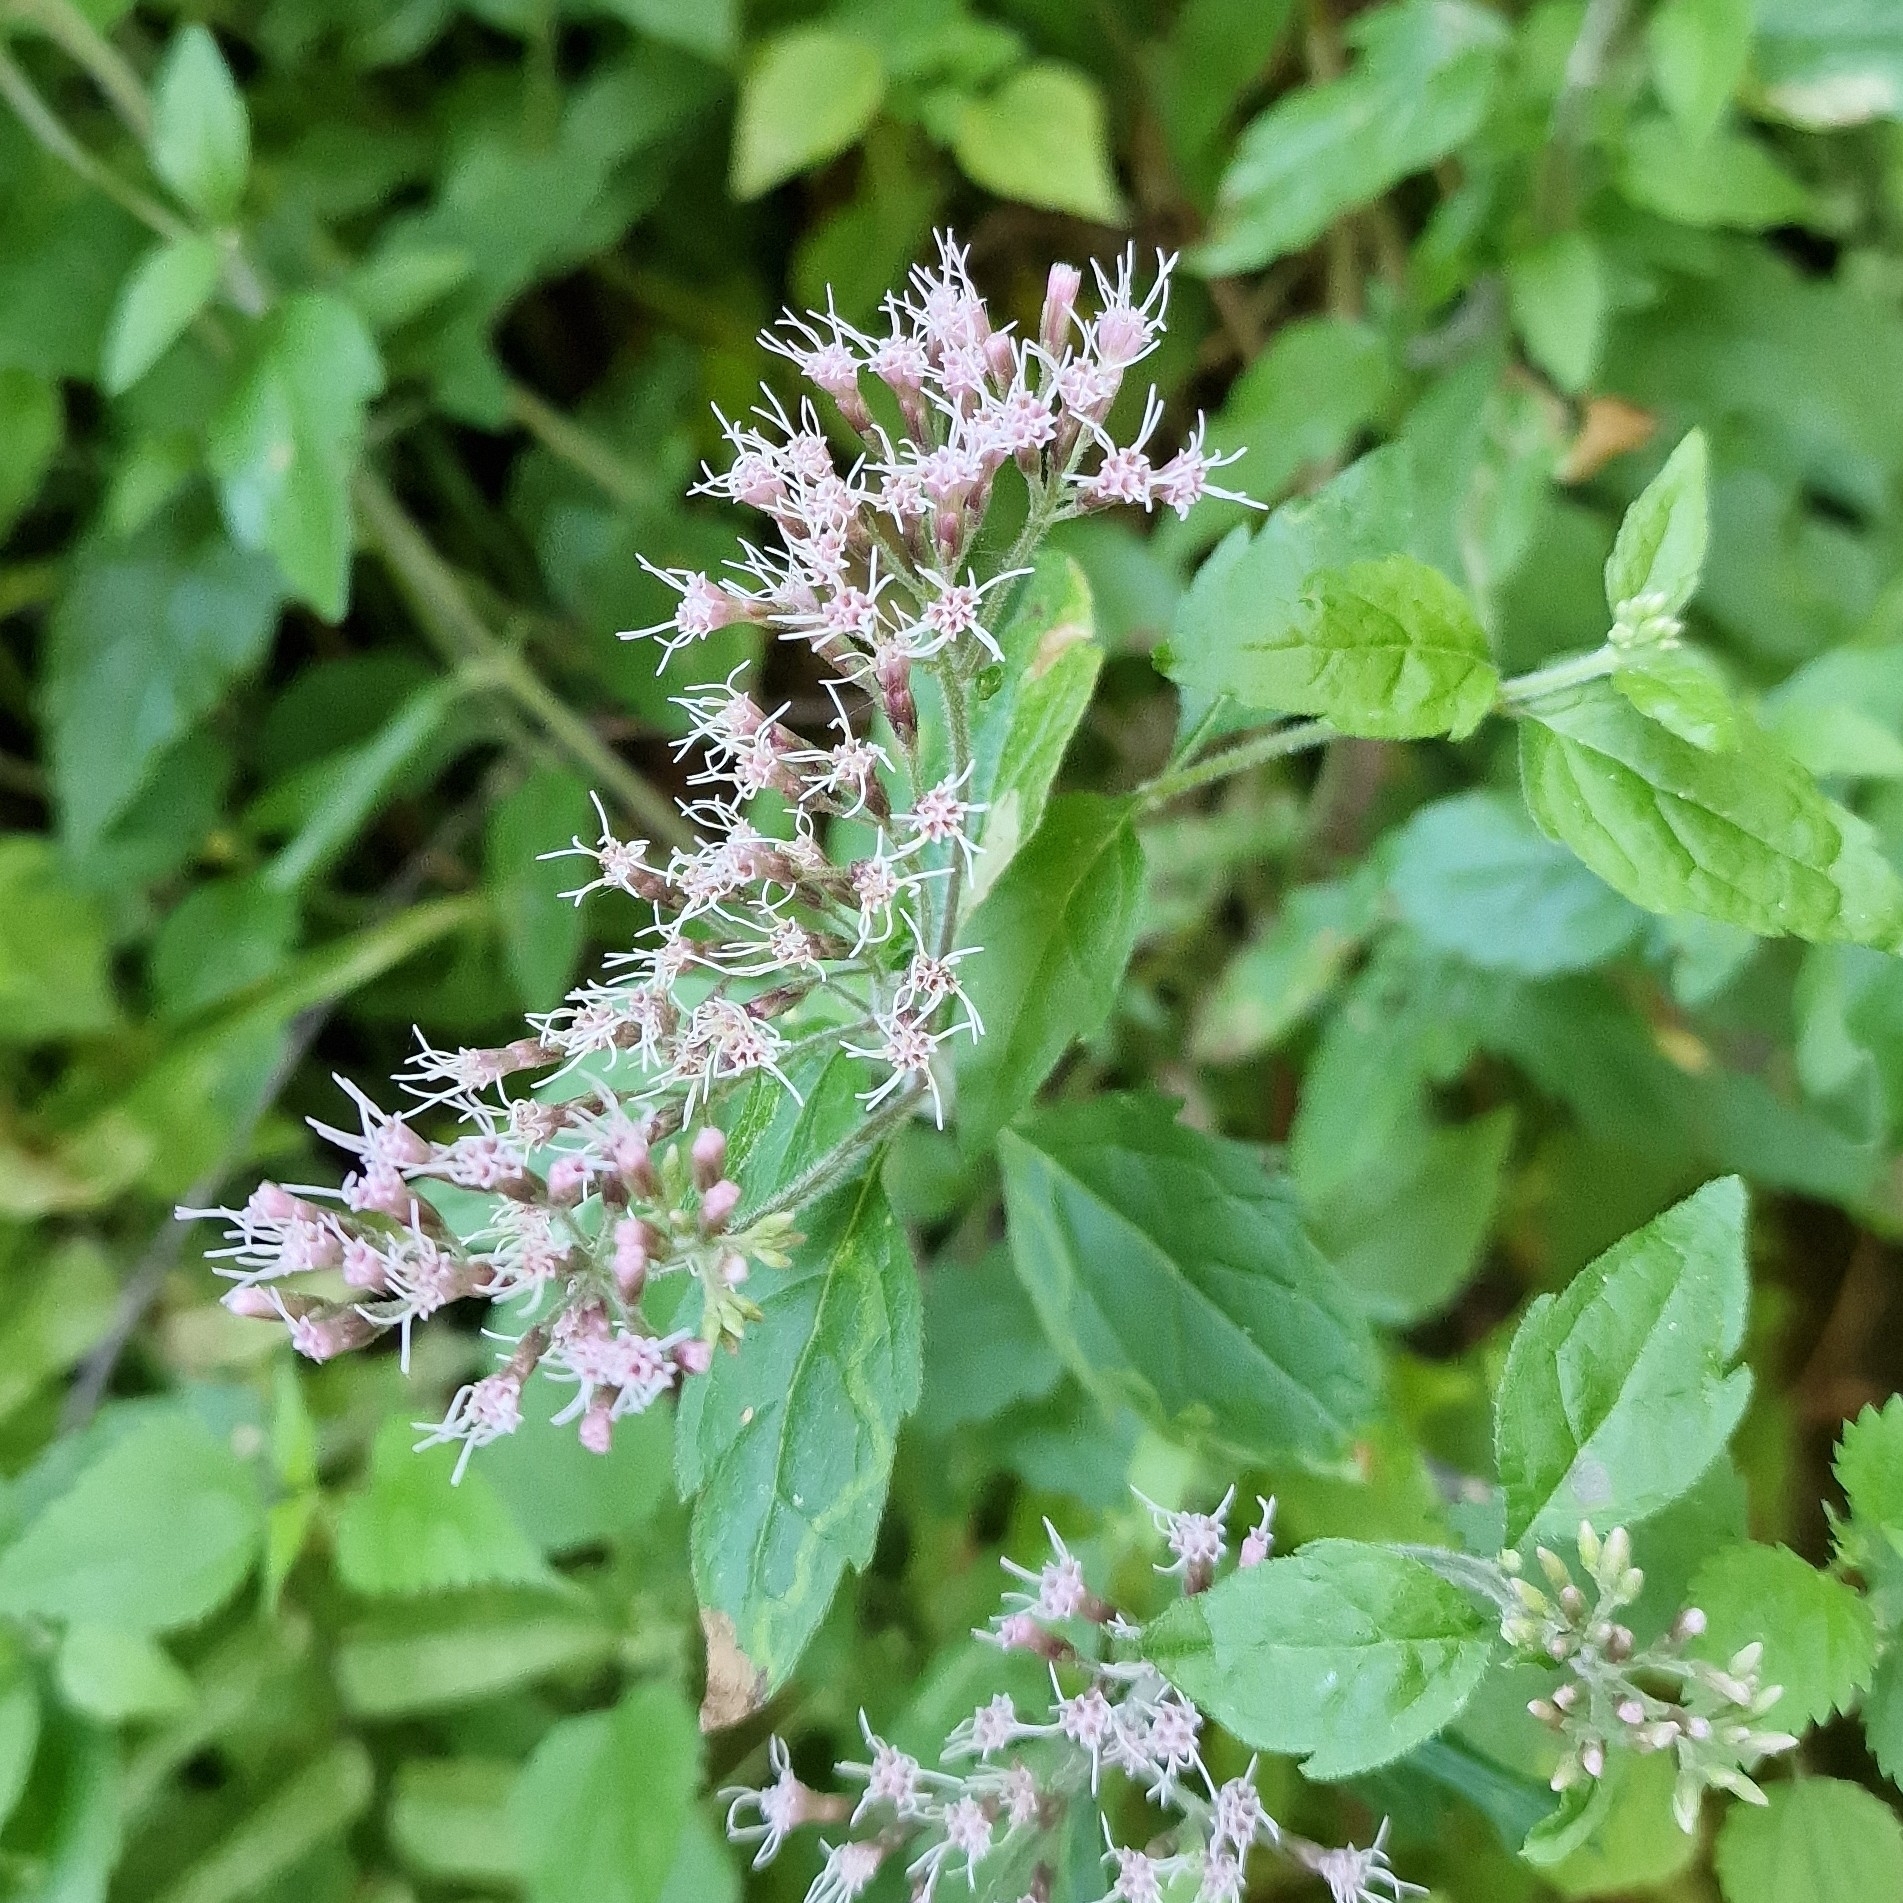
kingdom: Plantae
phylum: Tracheophyta
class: Magnoliopsida
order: Asterales
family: Asteraceae
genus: Eupatorium
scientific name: Eupatorium cannabinum
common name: Hemp-agrimony
